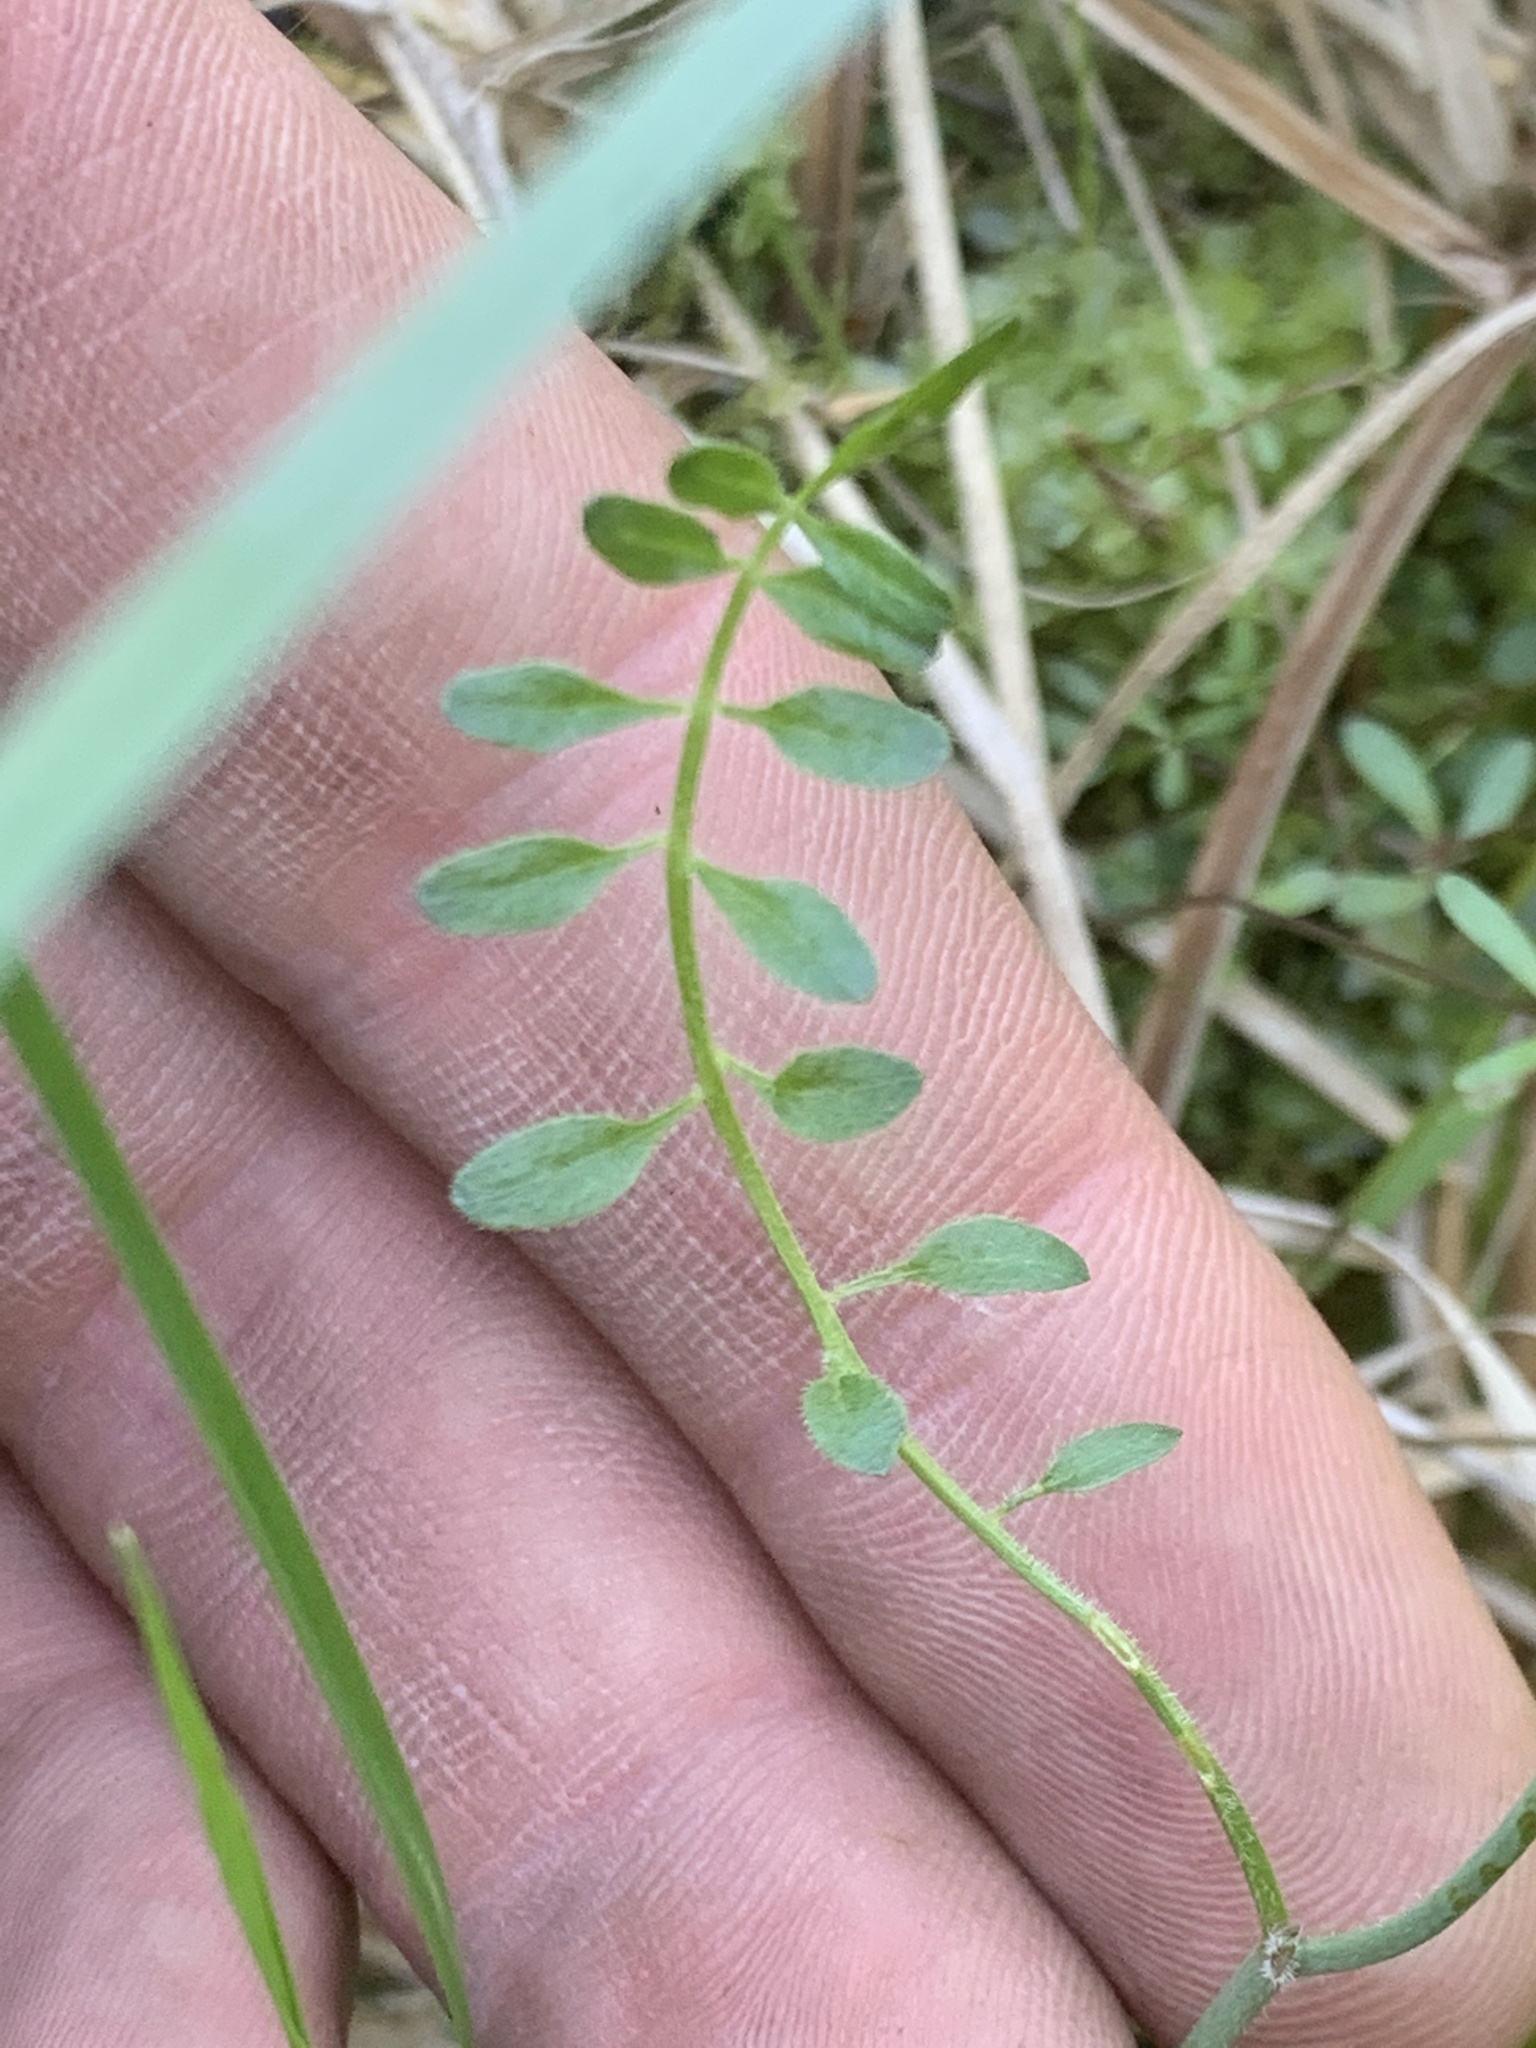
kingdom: Plantae
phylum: Tracheophyta
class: Magnoliopsida
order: Brassicales
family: Brassicaceae
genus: Cardamine
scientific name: Cardamine pensylvanica
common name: Pennsylvania bittercress
